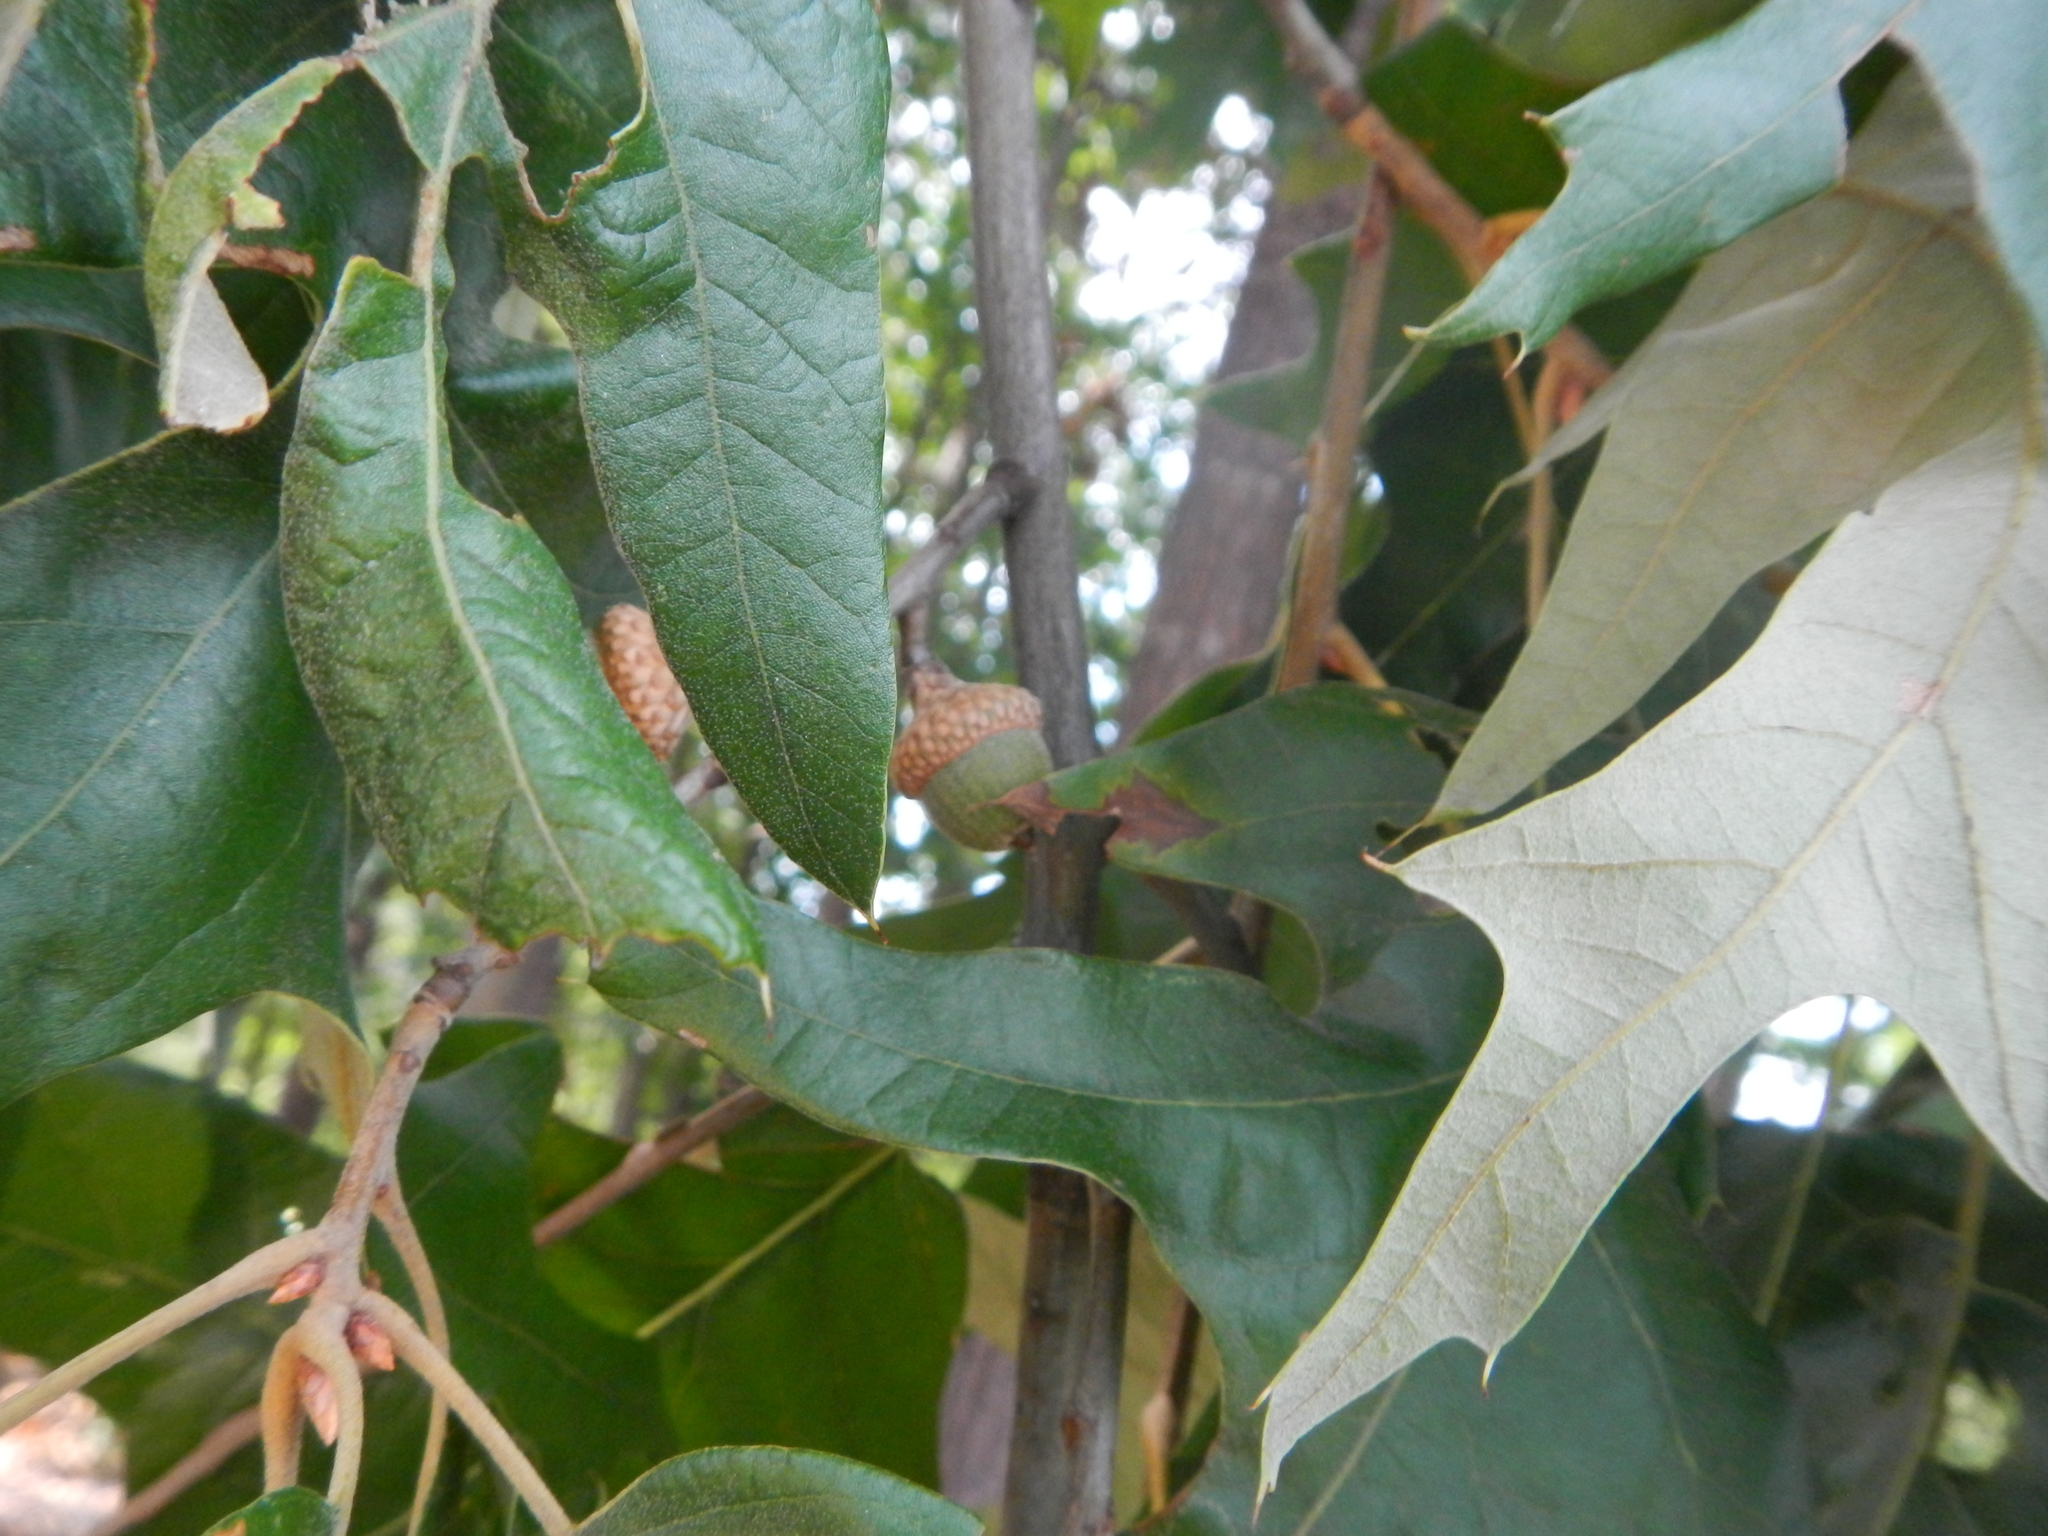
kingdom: Plantae
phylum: Tracheophyta
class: Magnoliopsida
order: Fagales
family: Fagaceae
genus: Quercus
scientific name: Quercus falcata
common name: Southern red oak
